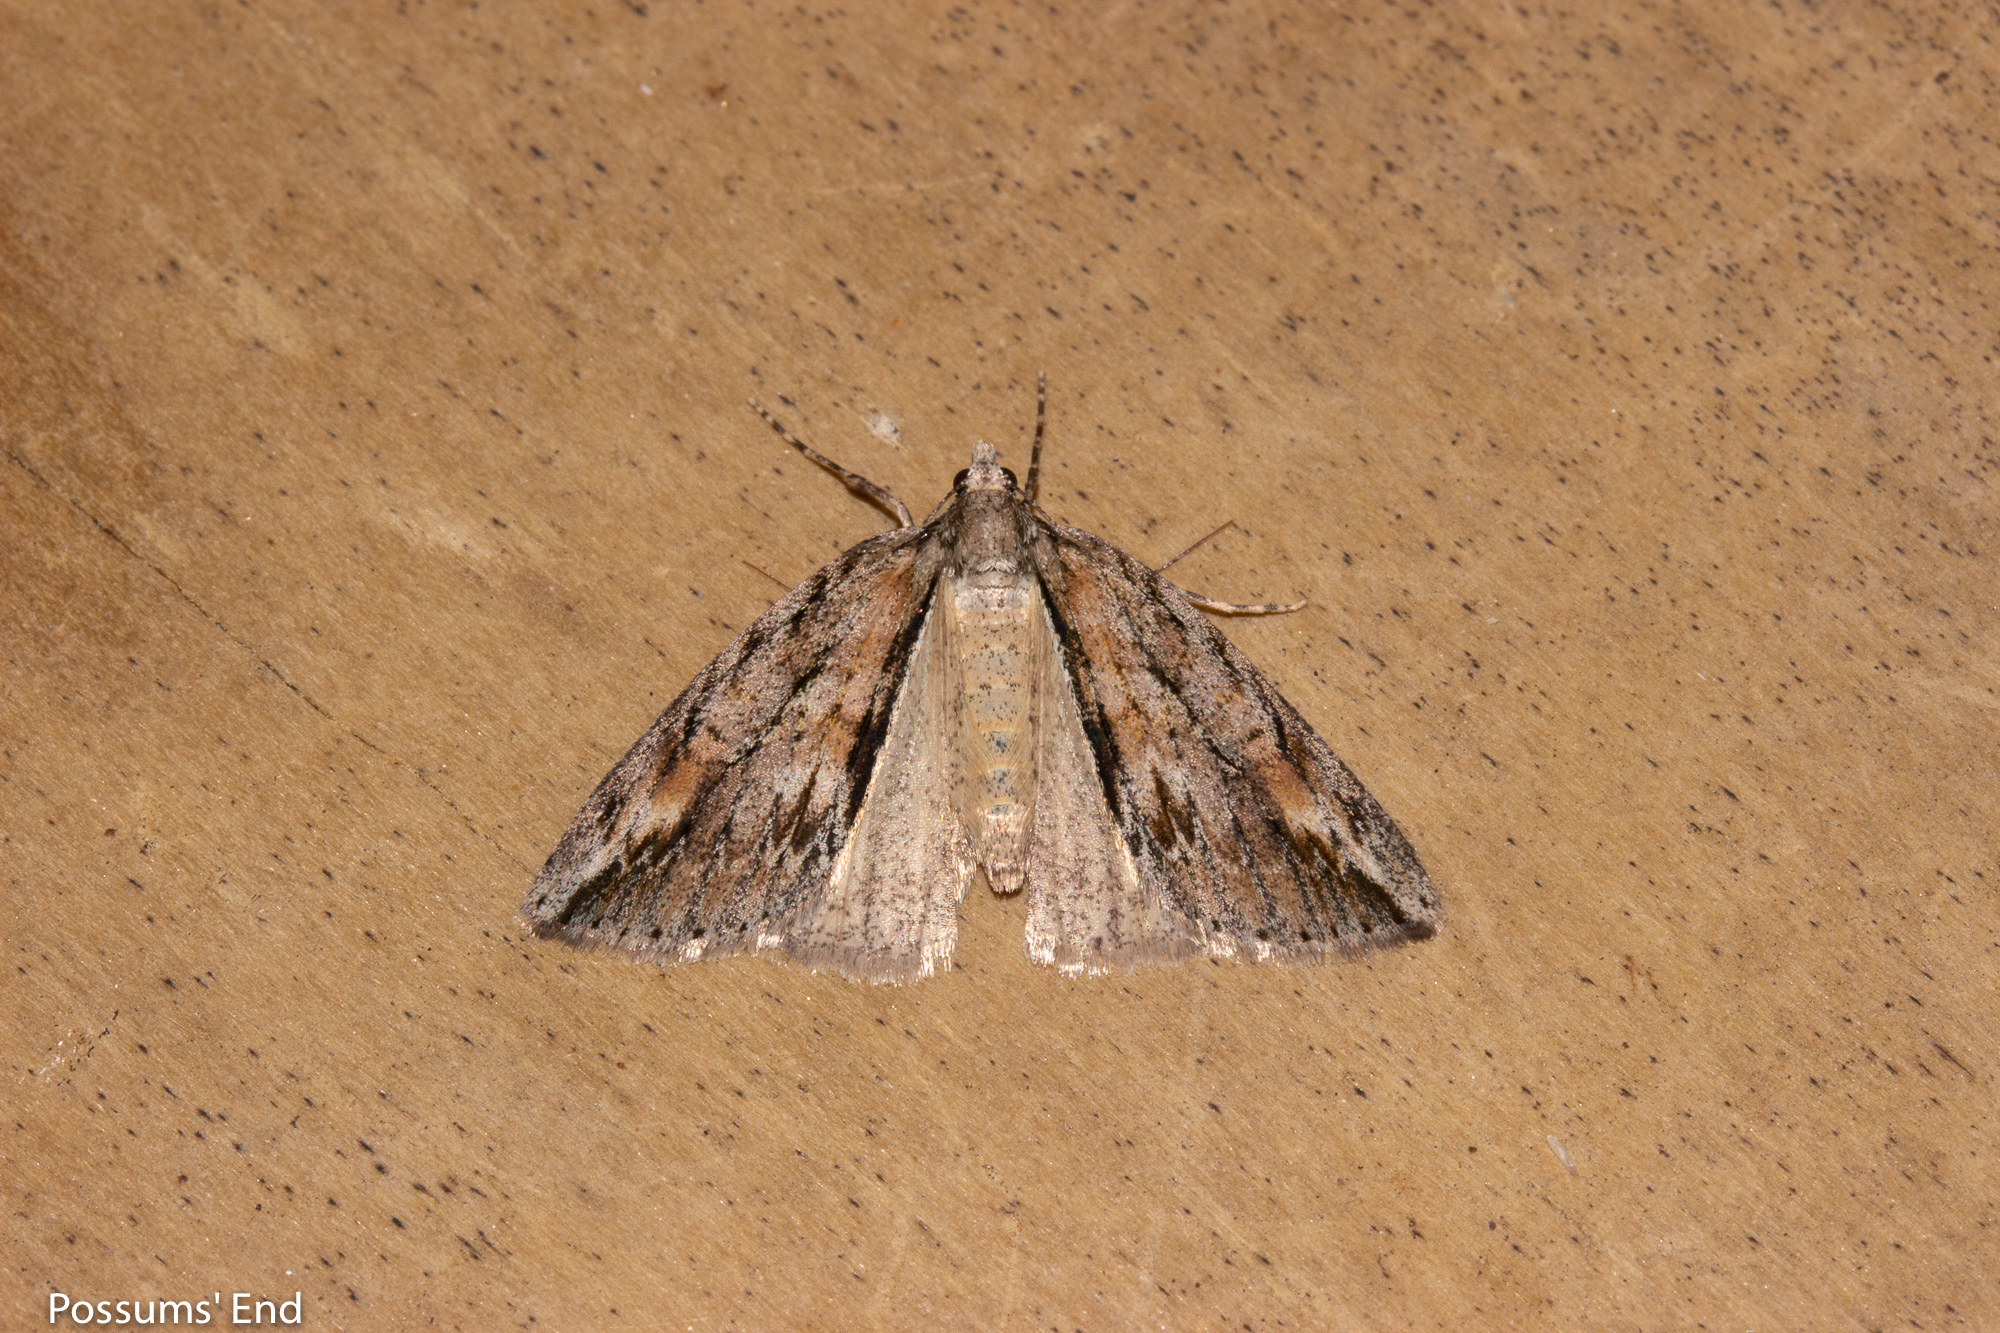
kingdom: Animalia
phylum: Arthropoda
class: Insecta
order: Lepidoptera
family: Geometridae
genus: Pseudocoremia
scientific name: Pseudocoremia lupinata
